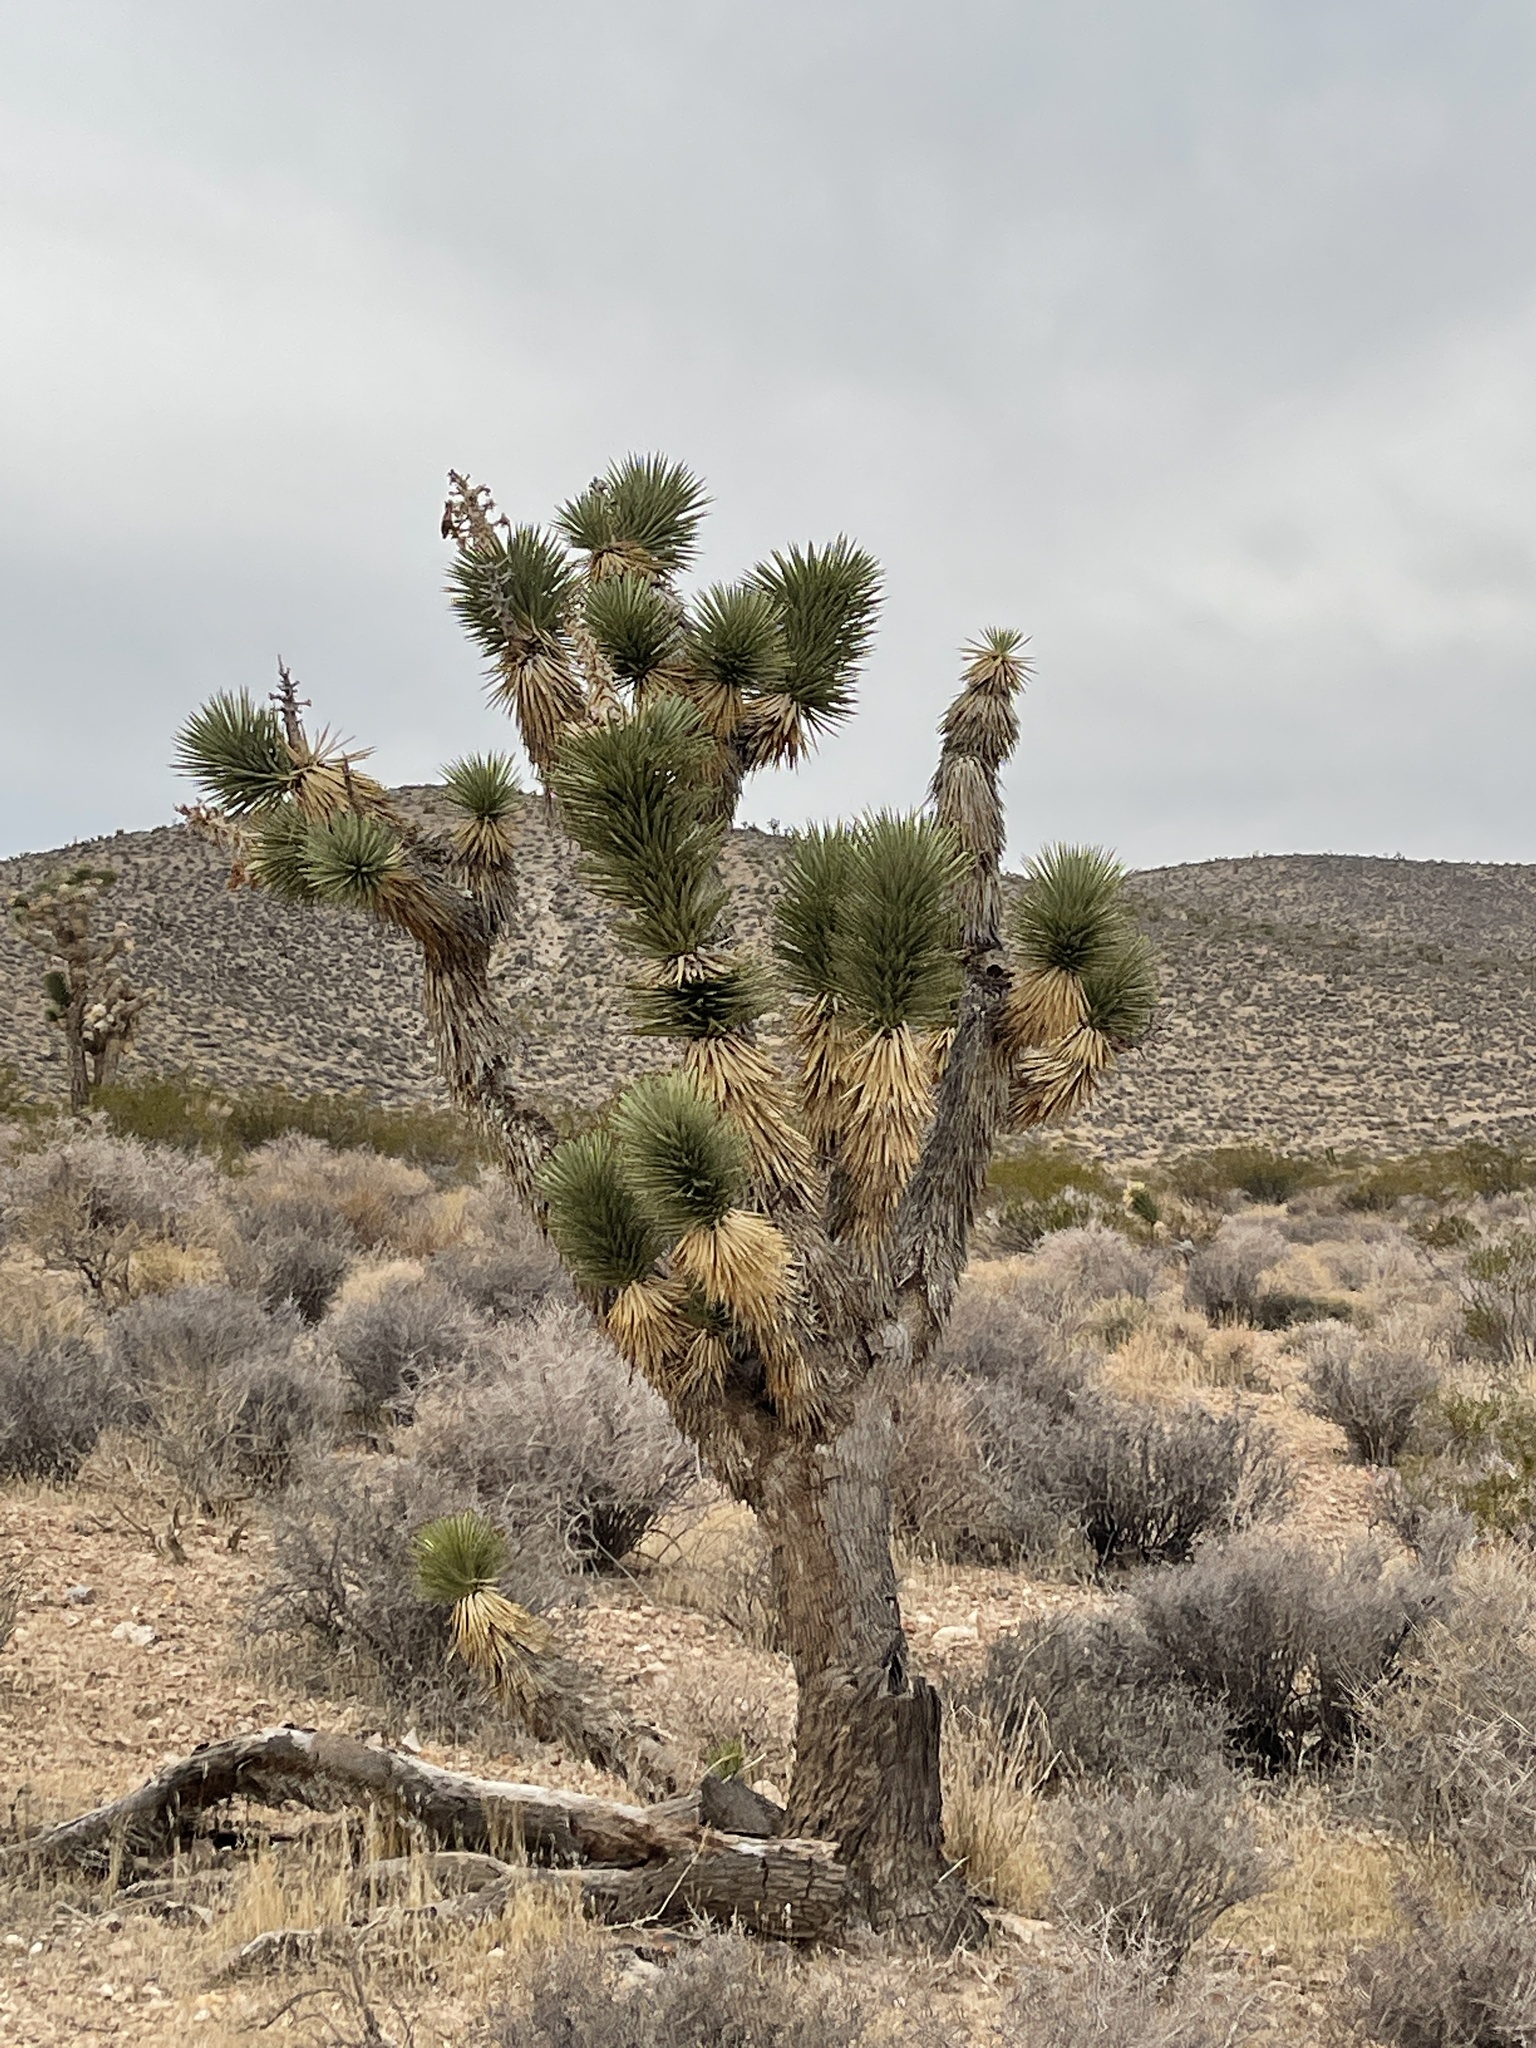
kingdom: Plantae
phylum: Tracheophyta
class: Liliopsida
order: Asparagales
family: Asparagaceae
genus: Yucca
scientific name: Yucca brevifolia
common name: Joshua tree
